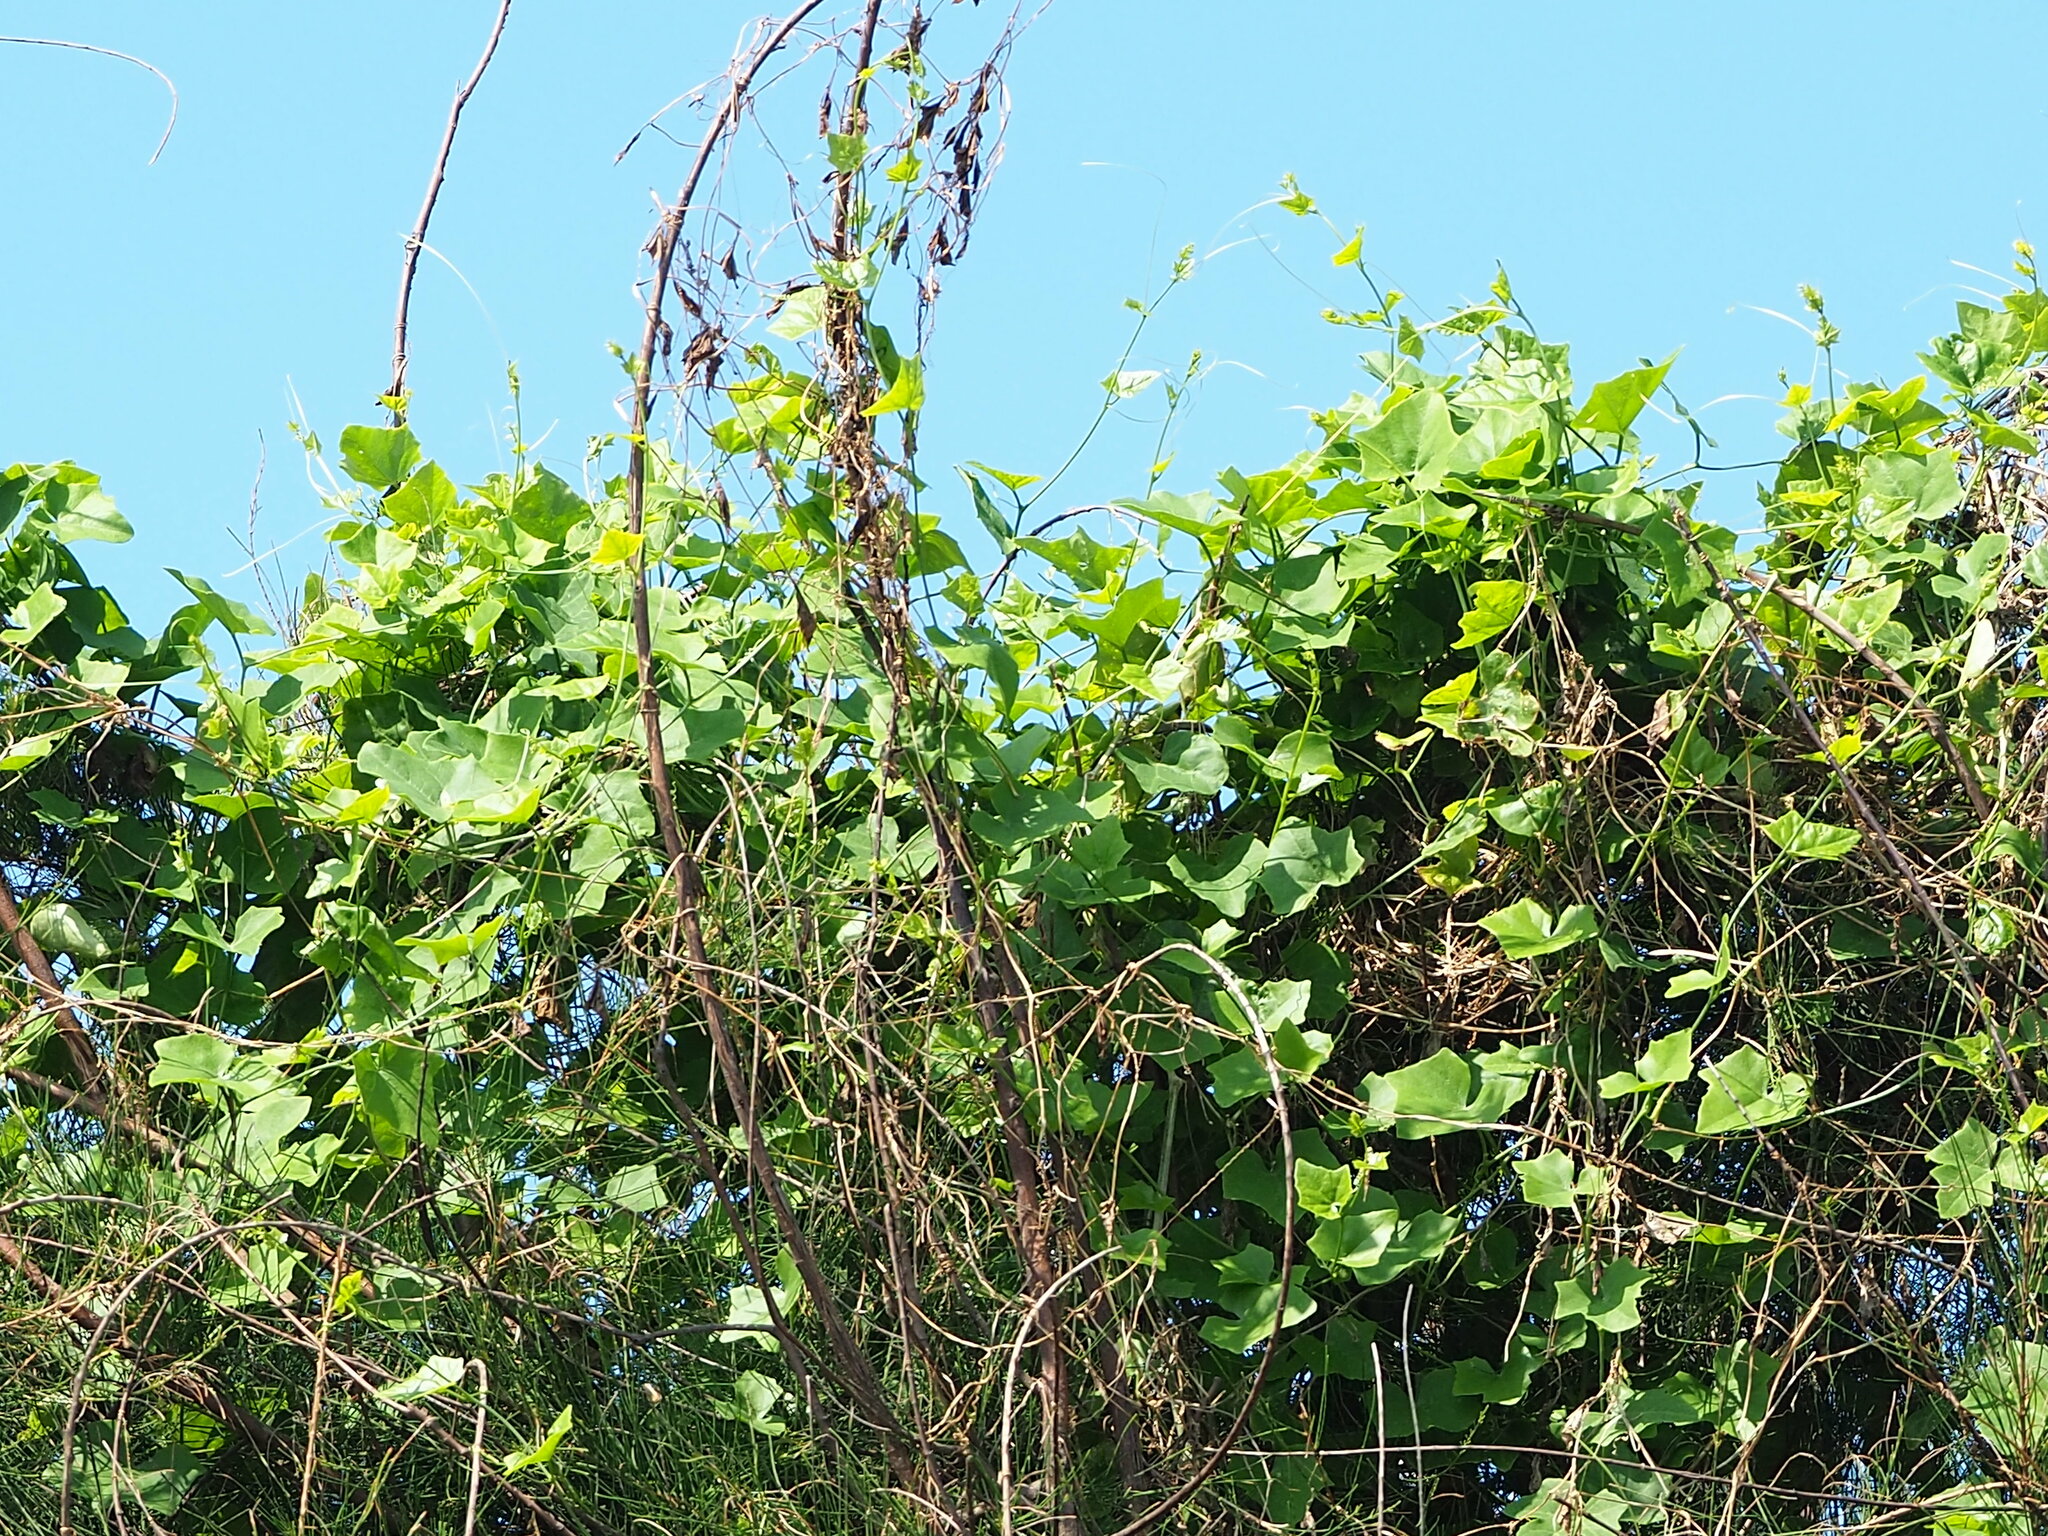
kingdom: Plantae
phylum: Tracheophyta
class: Magnoliopsida
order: Cucurbitales
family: Cucurbitaceae
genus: Coccinia
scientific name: Coccinia grandis
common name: Ivy gourd
